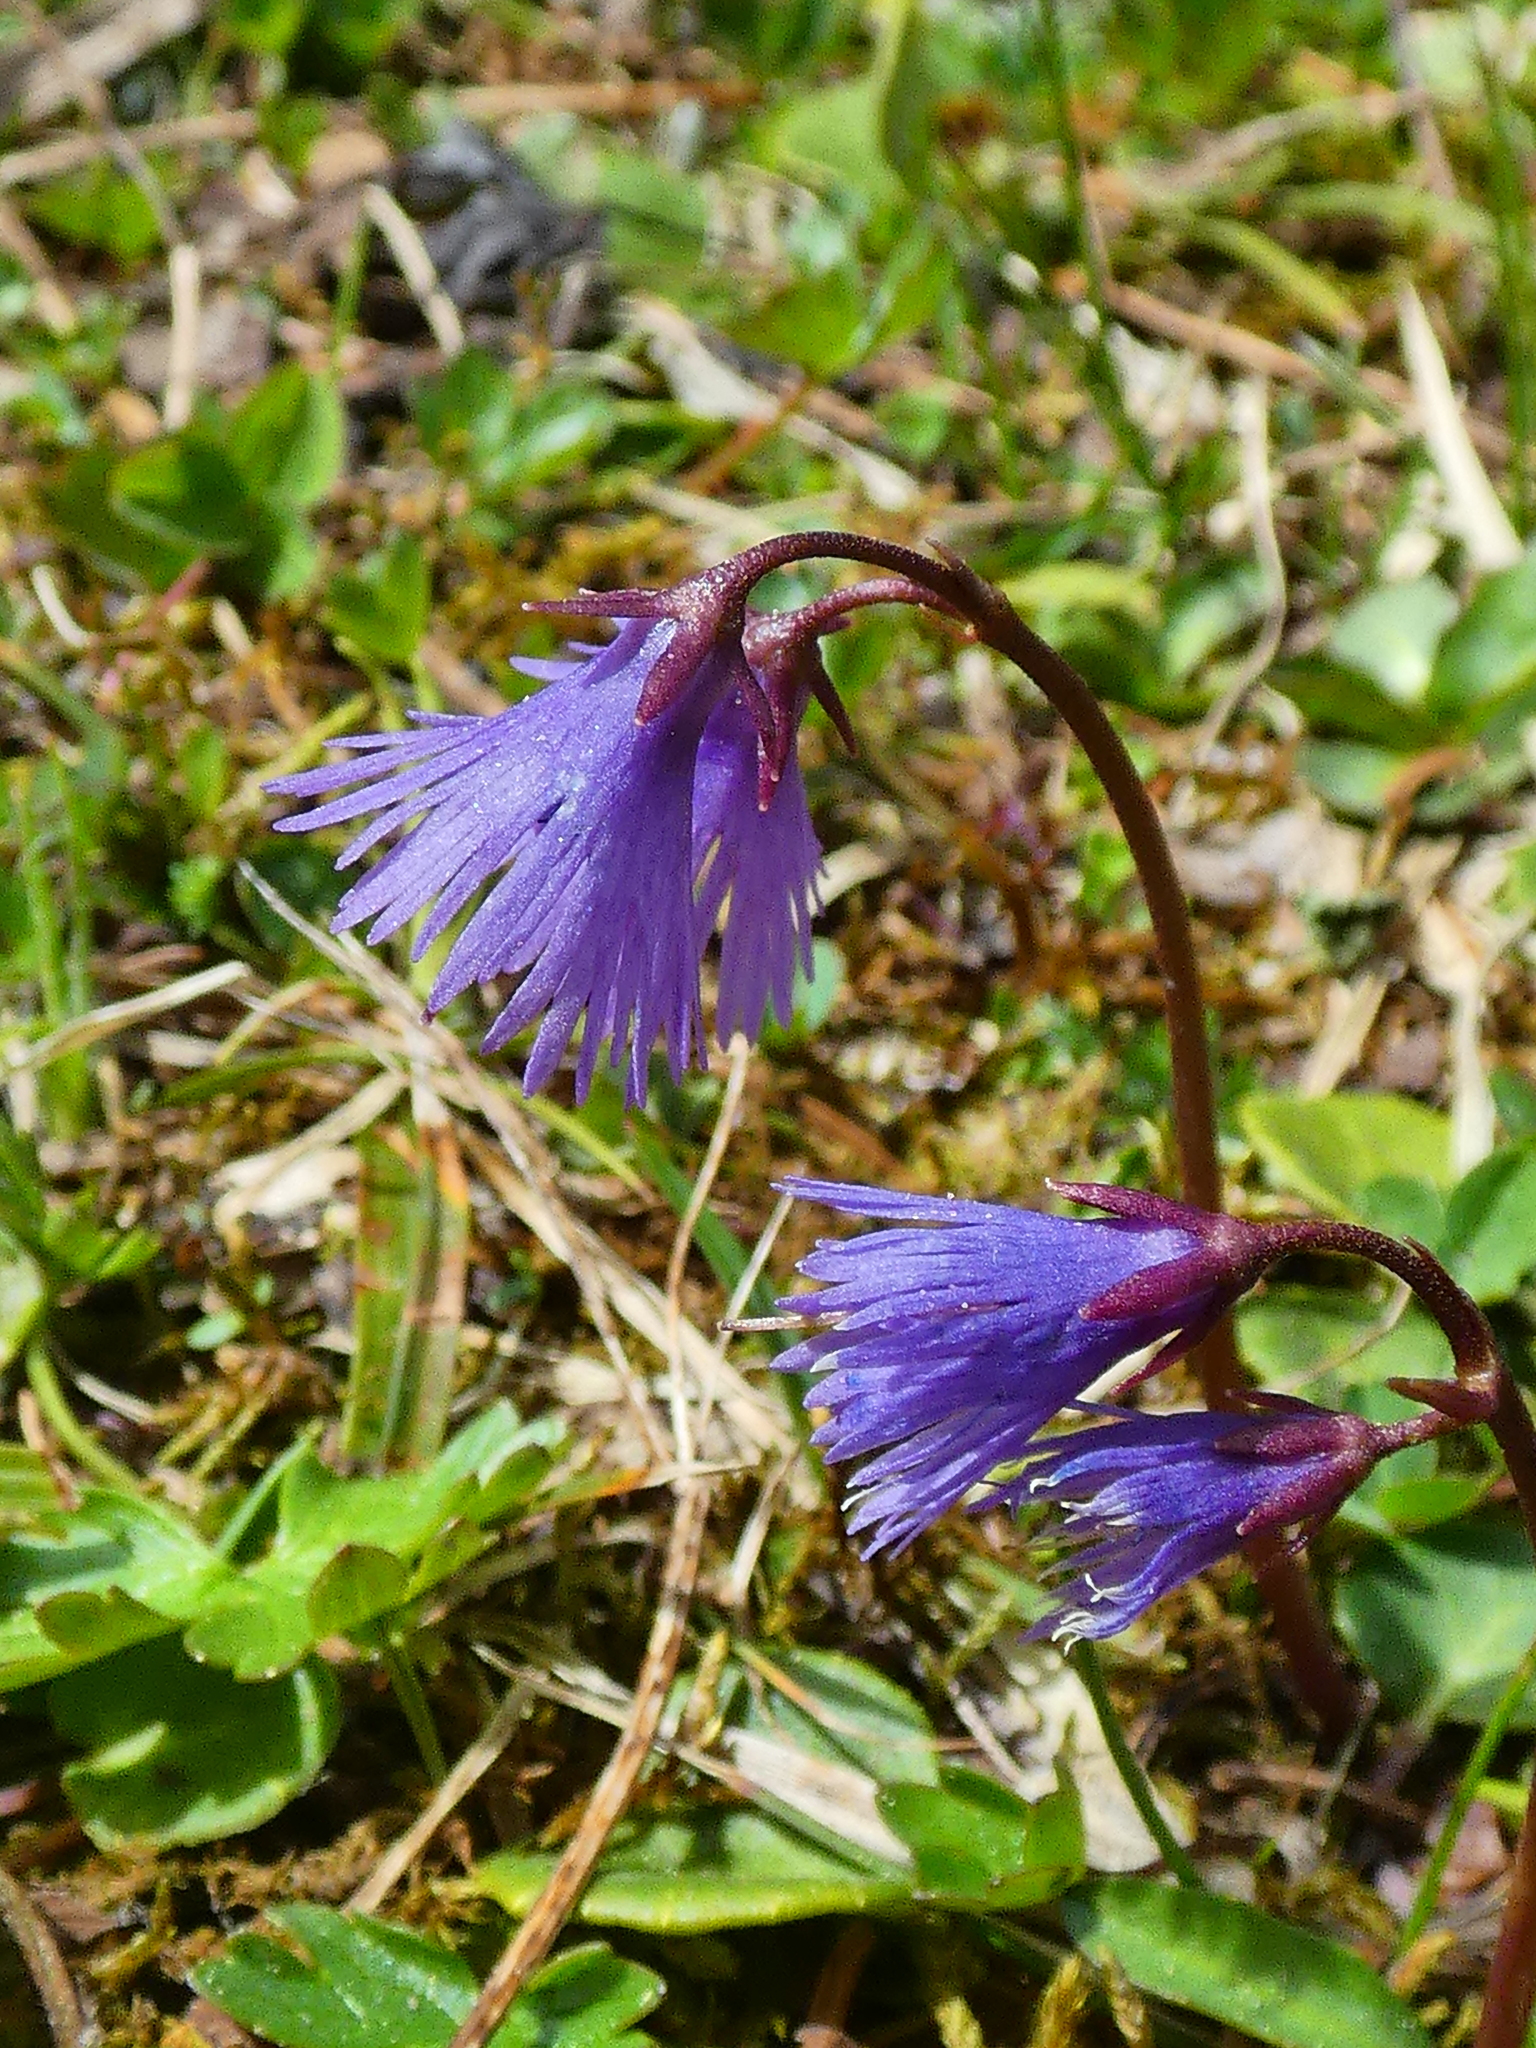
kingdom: Plantae
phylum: Tracheophyta
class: Magnoliopsida
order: Ericales
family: Primulaceae
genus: Soldanella
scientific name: Soldanella alpina
